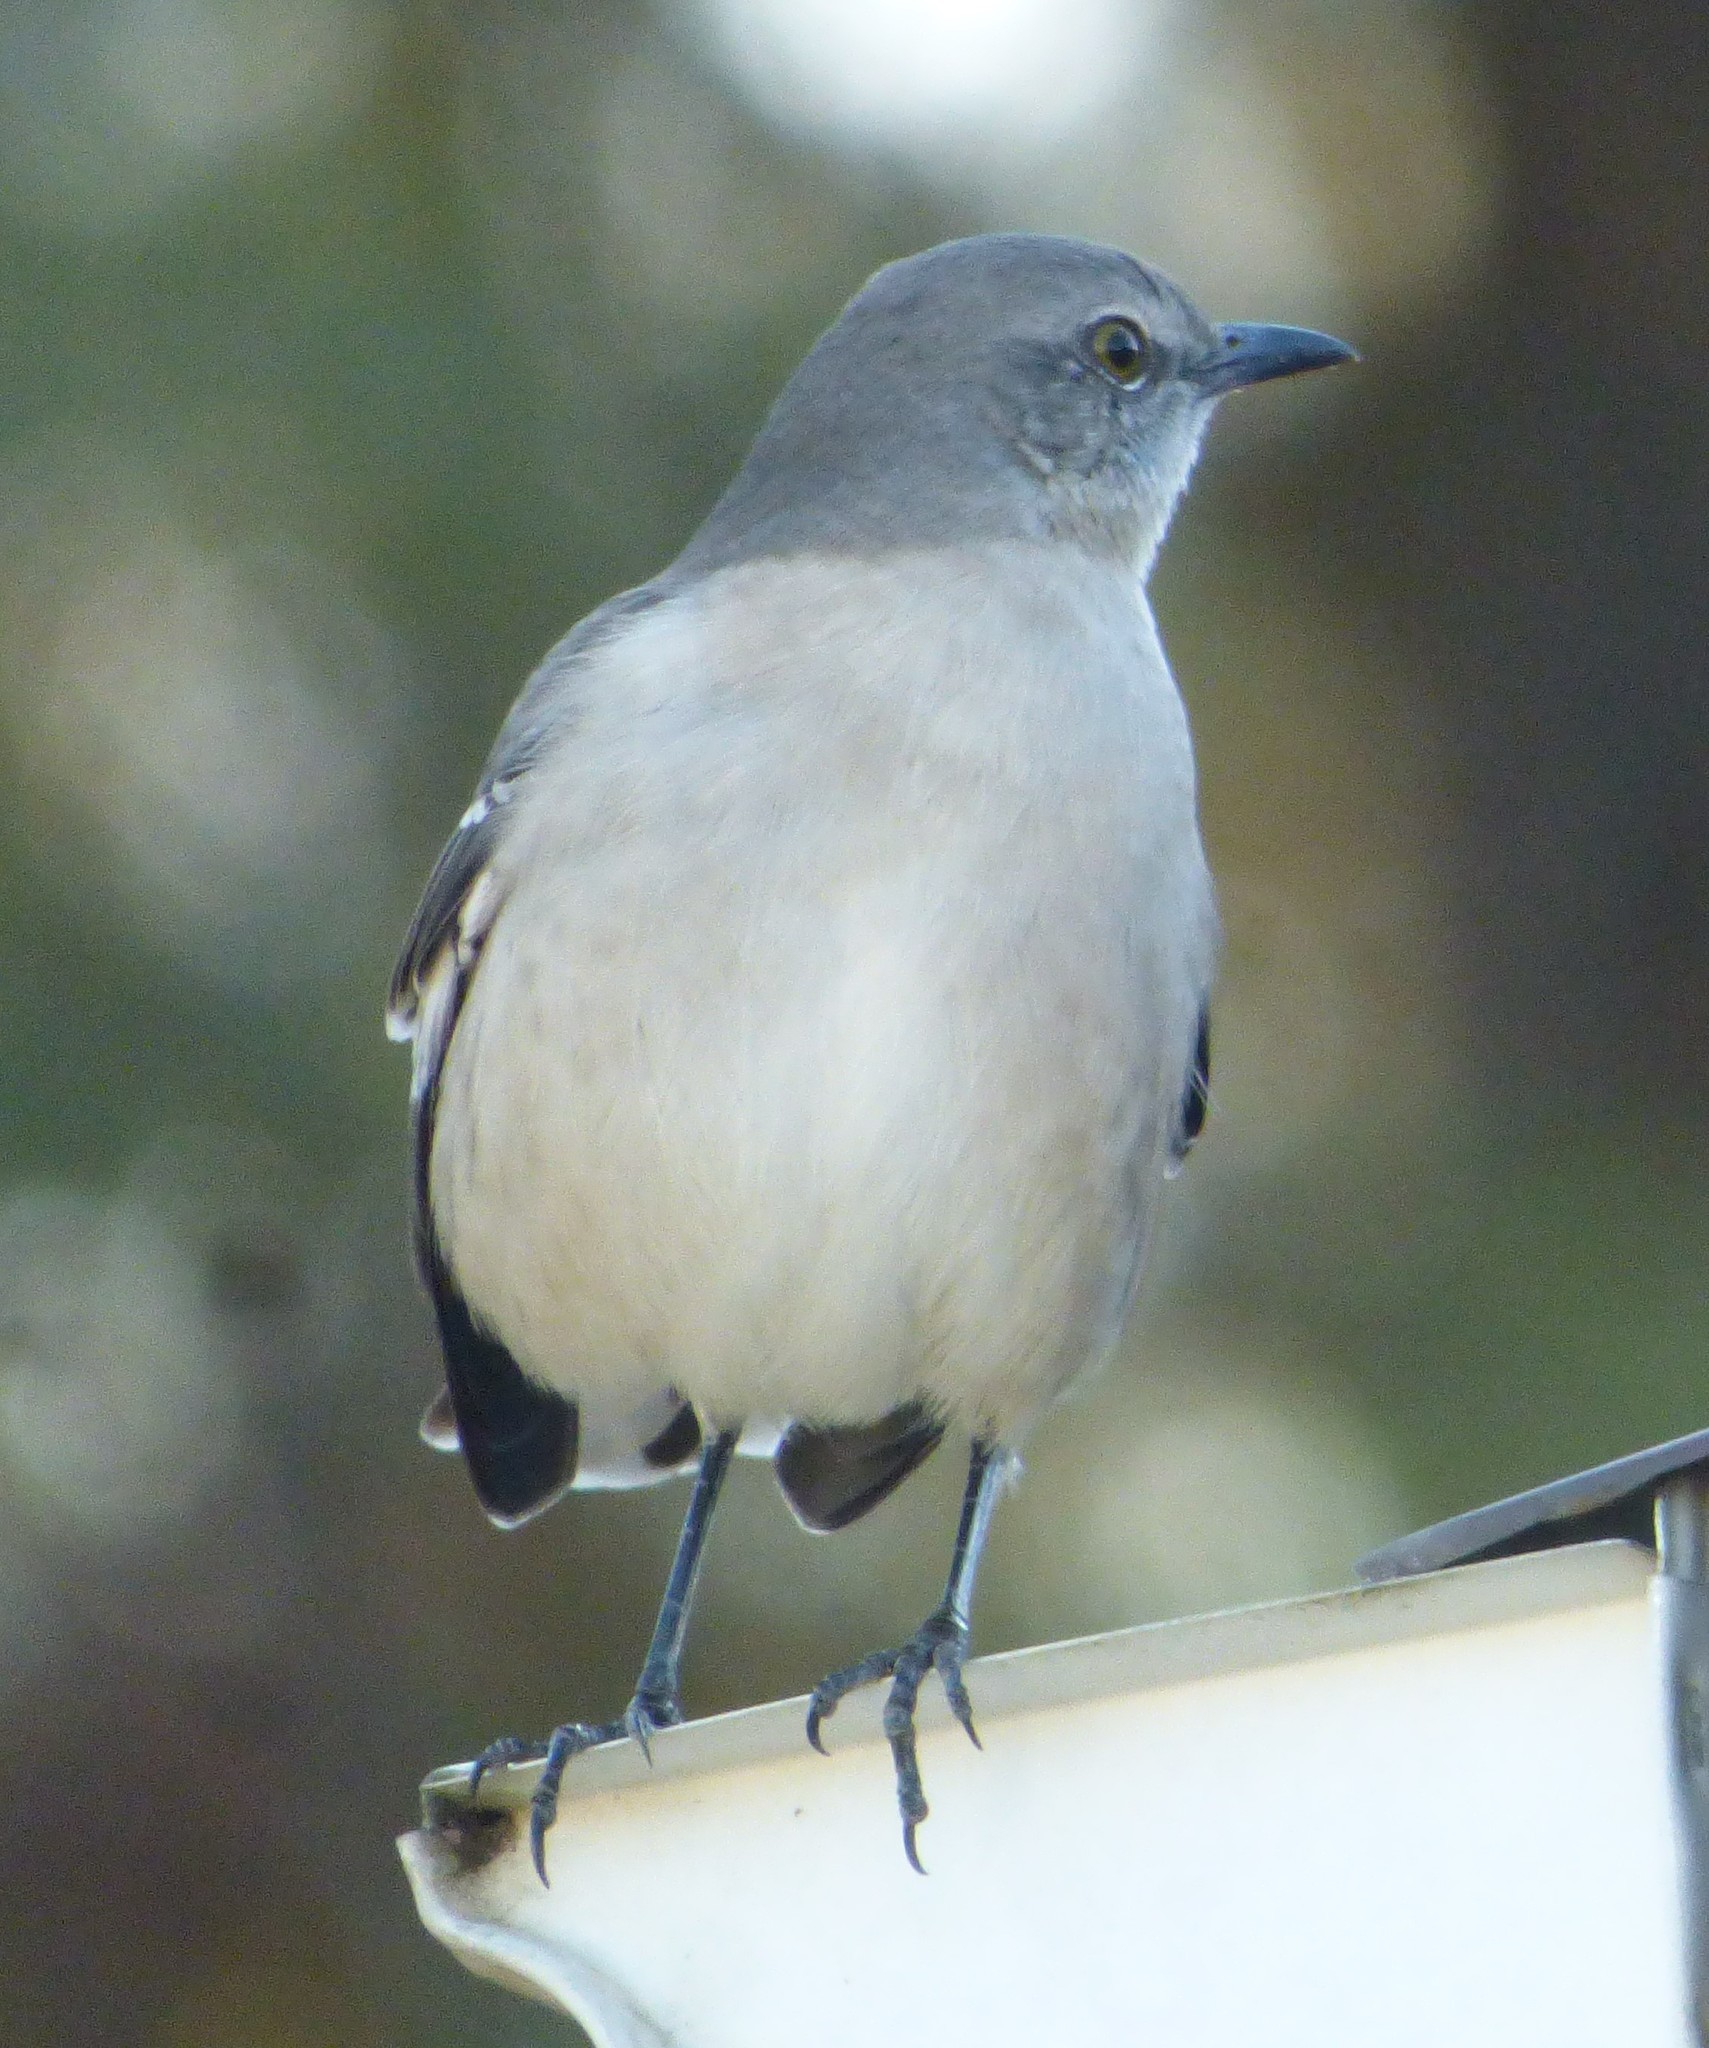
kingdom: Animalia
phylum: Chordata
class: Aves
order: Passeriformes
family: Mimidae
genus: Mimus
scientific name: Mimus polyglottos
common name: Northern mockingbird
